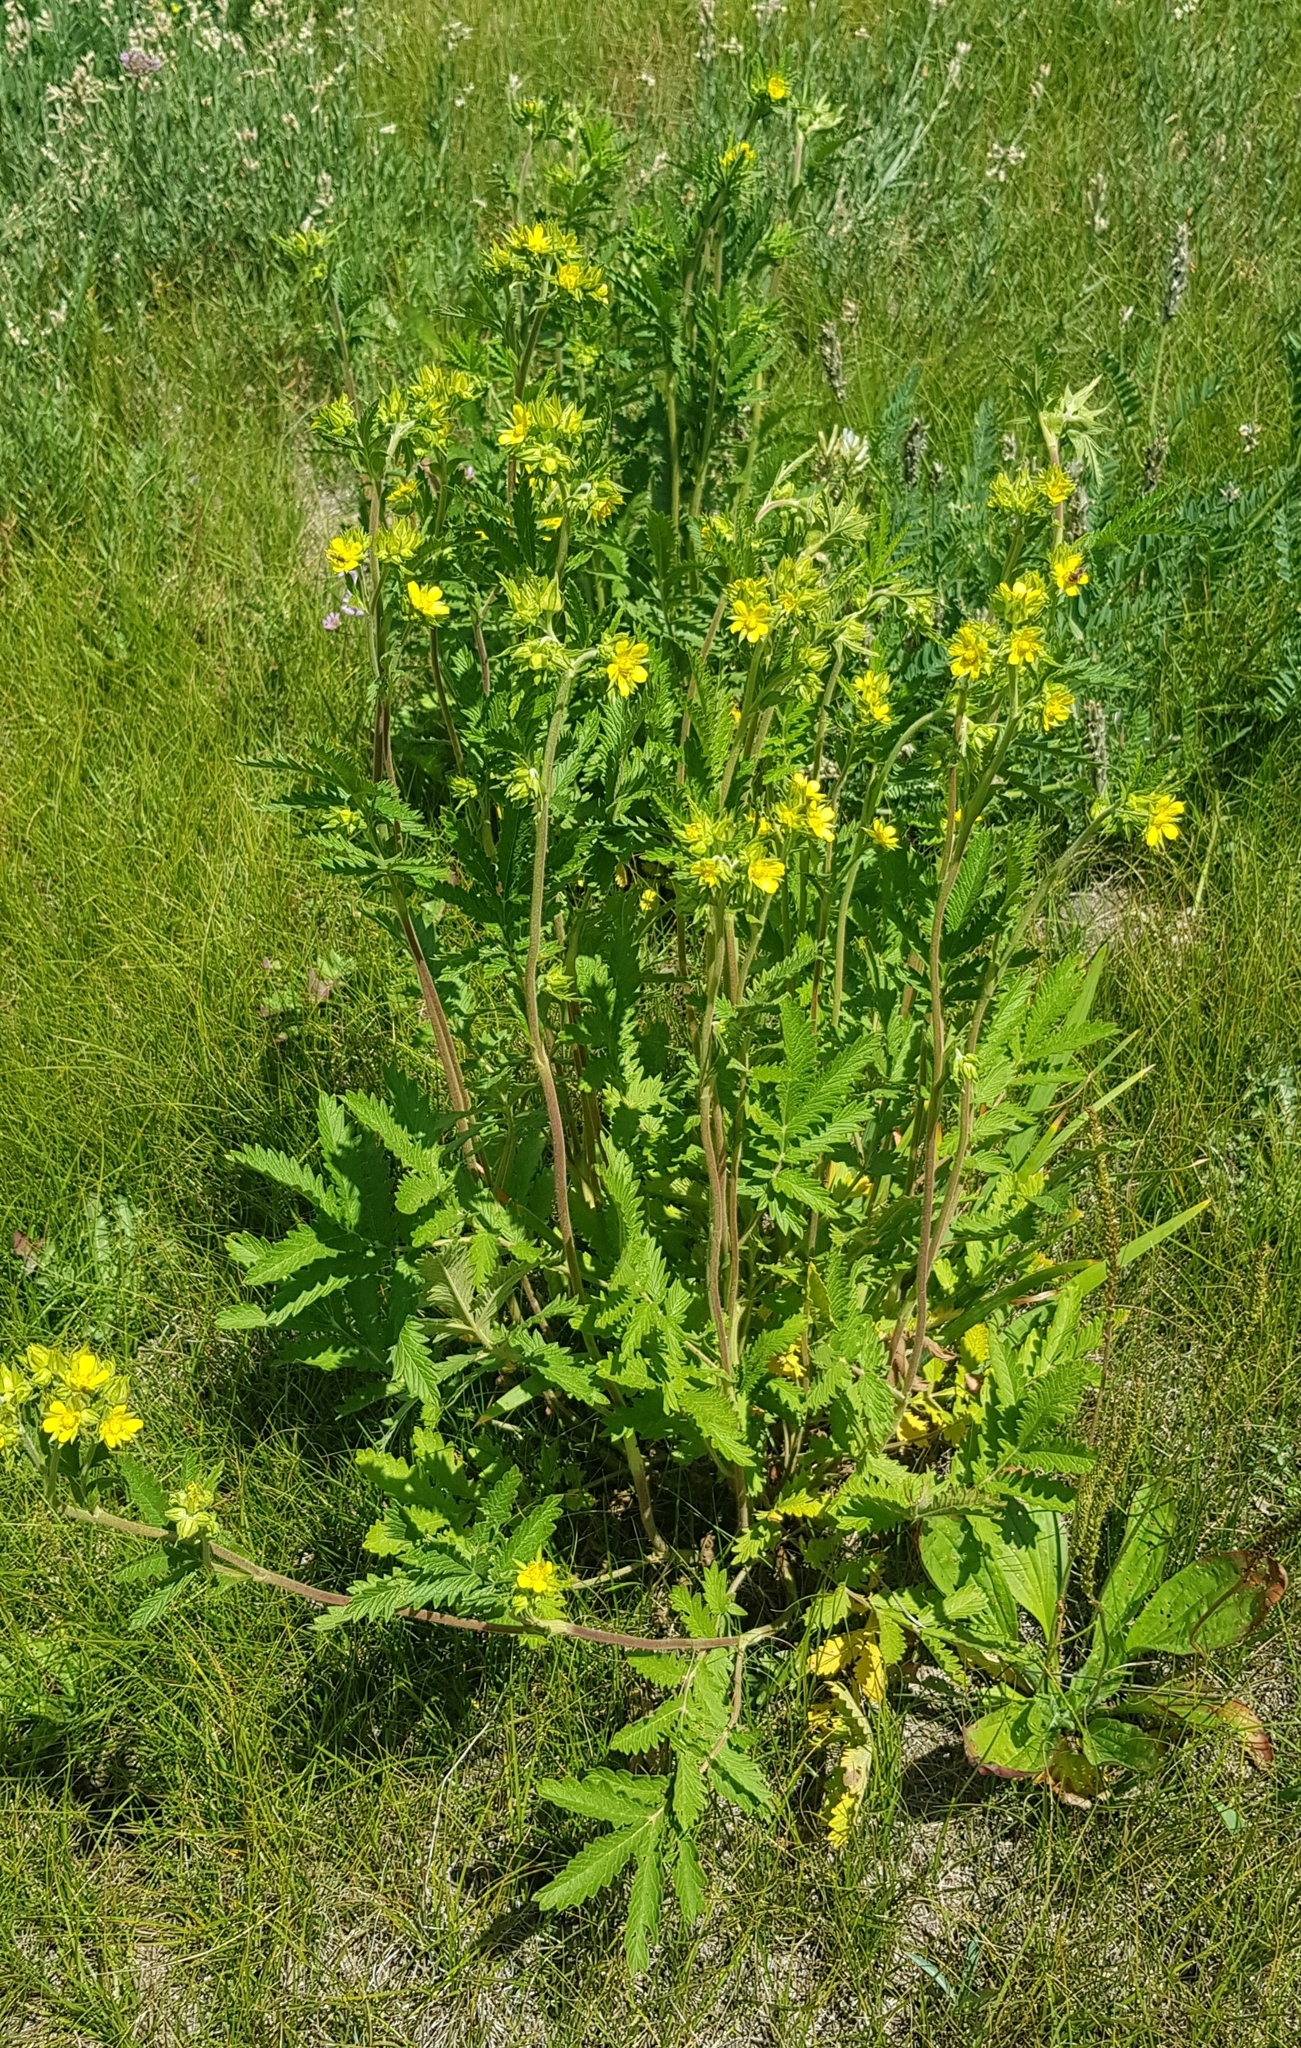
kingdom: Plantae
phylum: Tracheophyta
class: Magnoliopsida
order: Rosales
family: Rosaceae
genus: Potentilla
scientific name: Potentilla tanacetifolia
